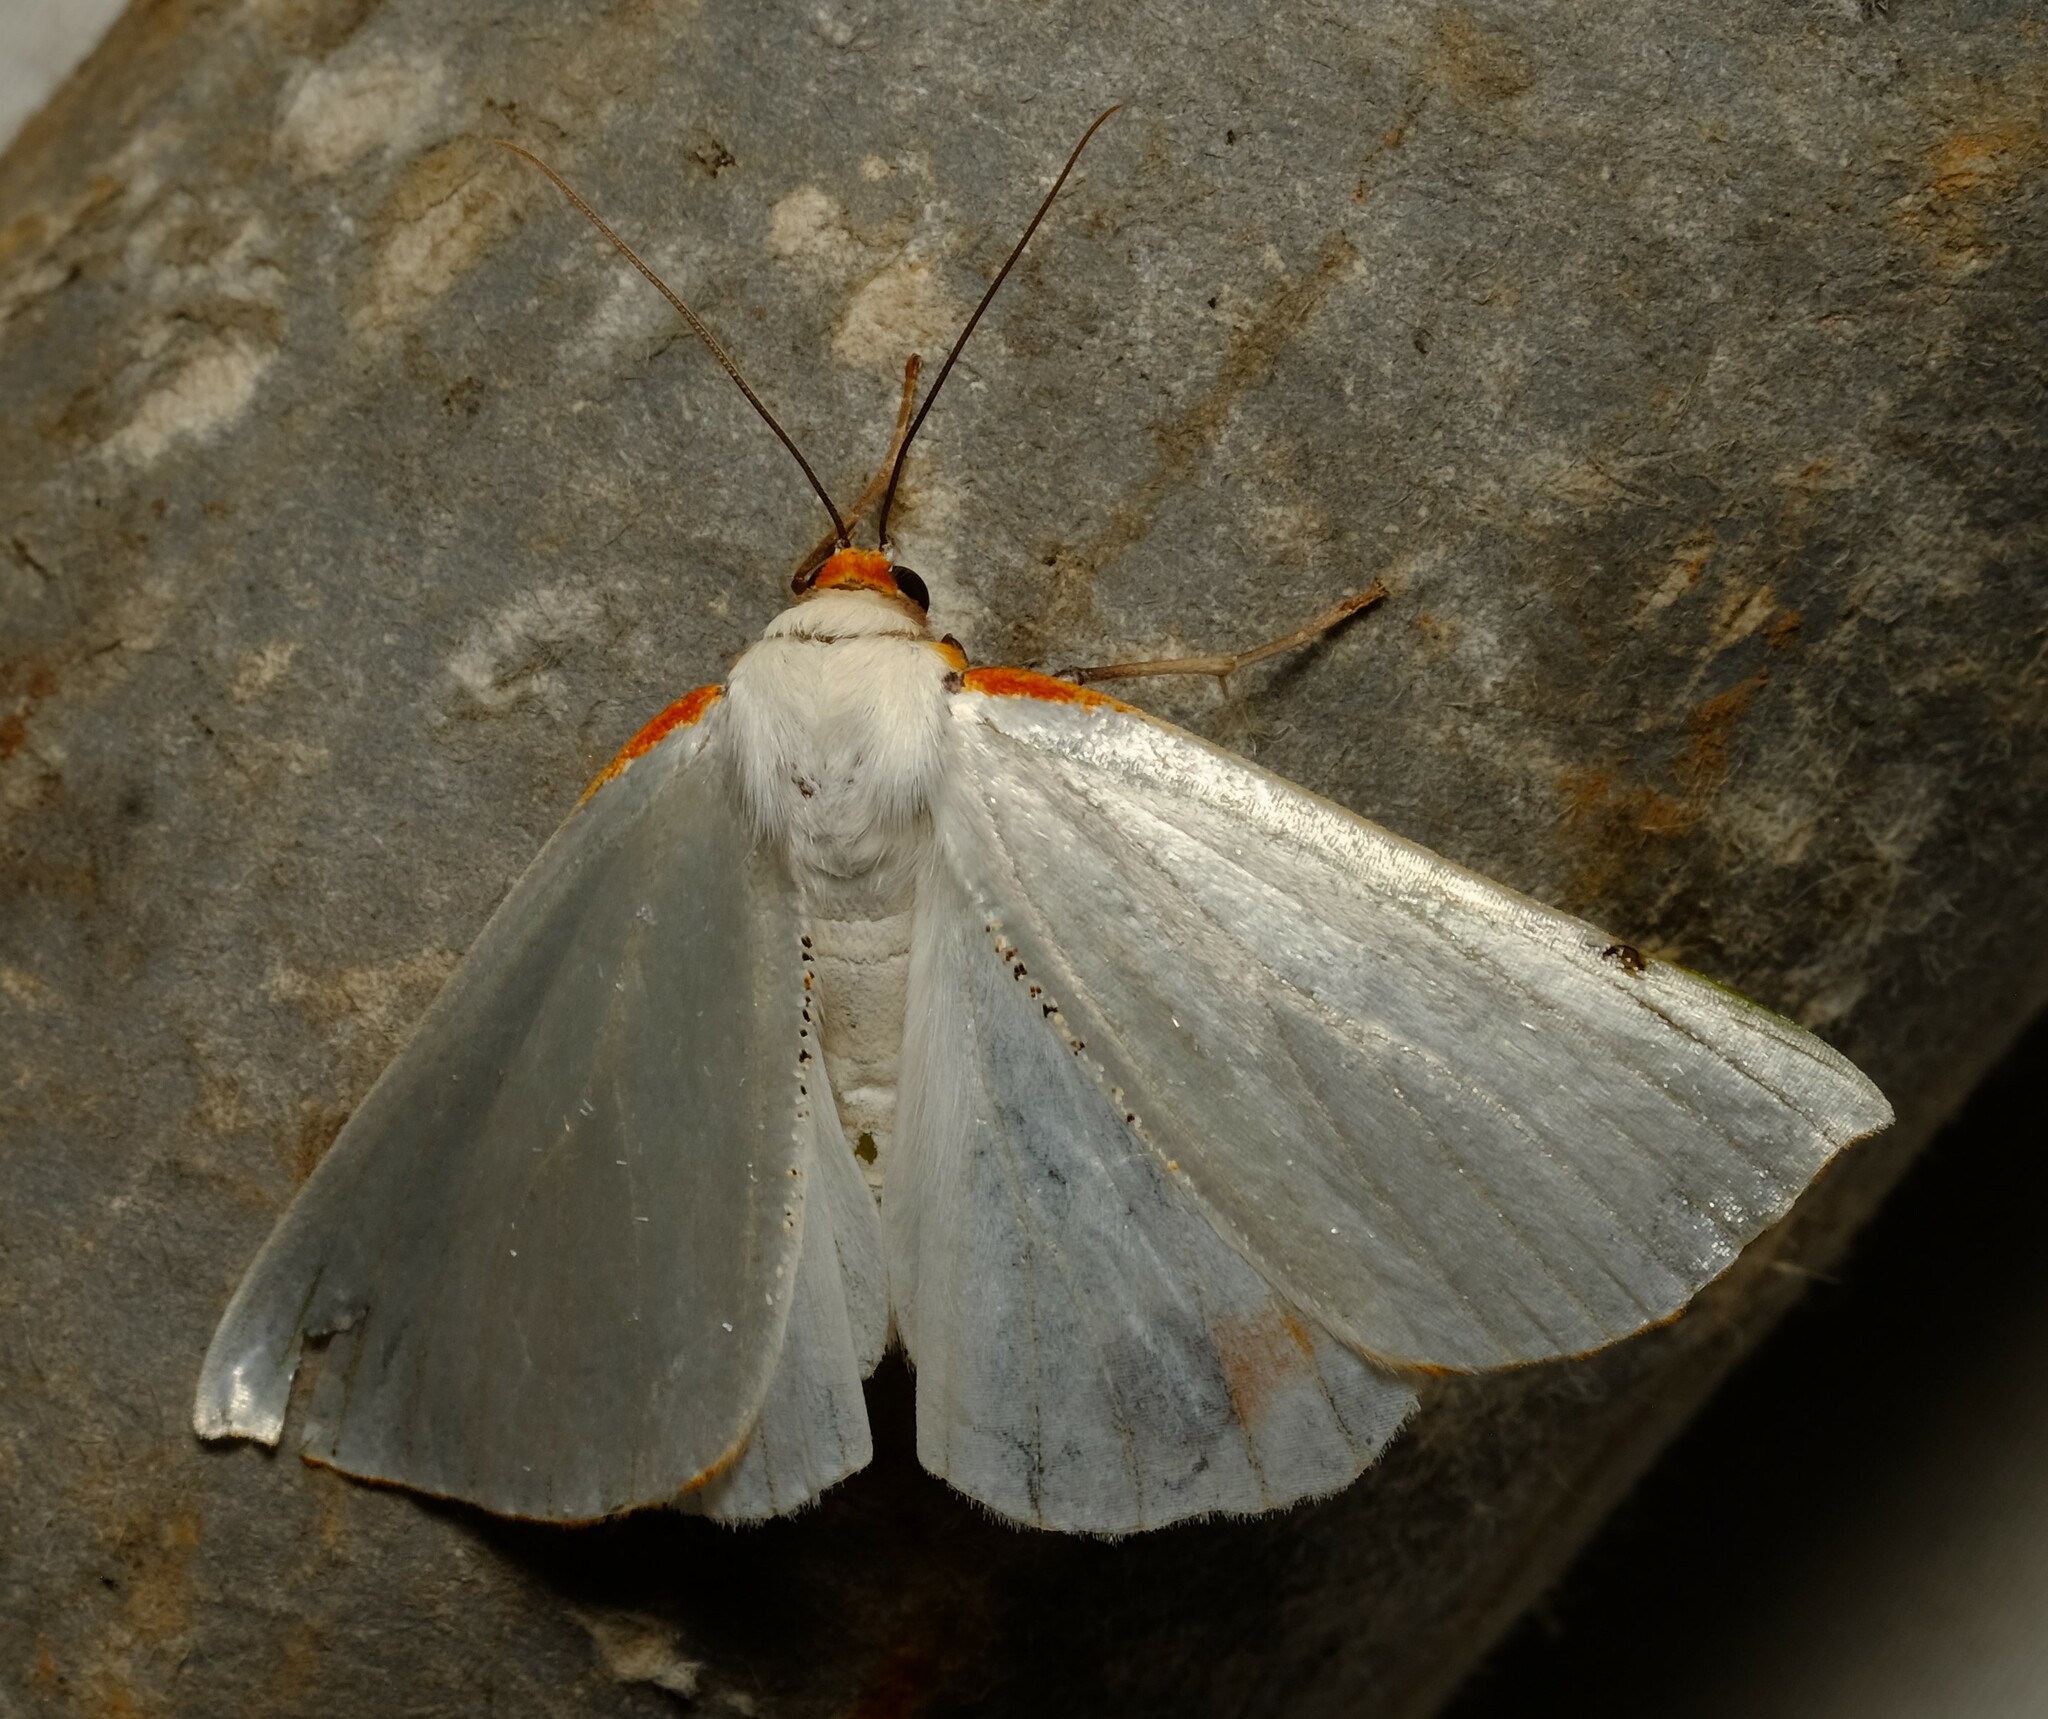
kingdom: Animalia
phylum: Arthropoda
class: Insecta
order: Lepidoptera
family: Geometridae
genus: Thalaina
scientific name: Thalaina selenaea
